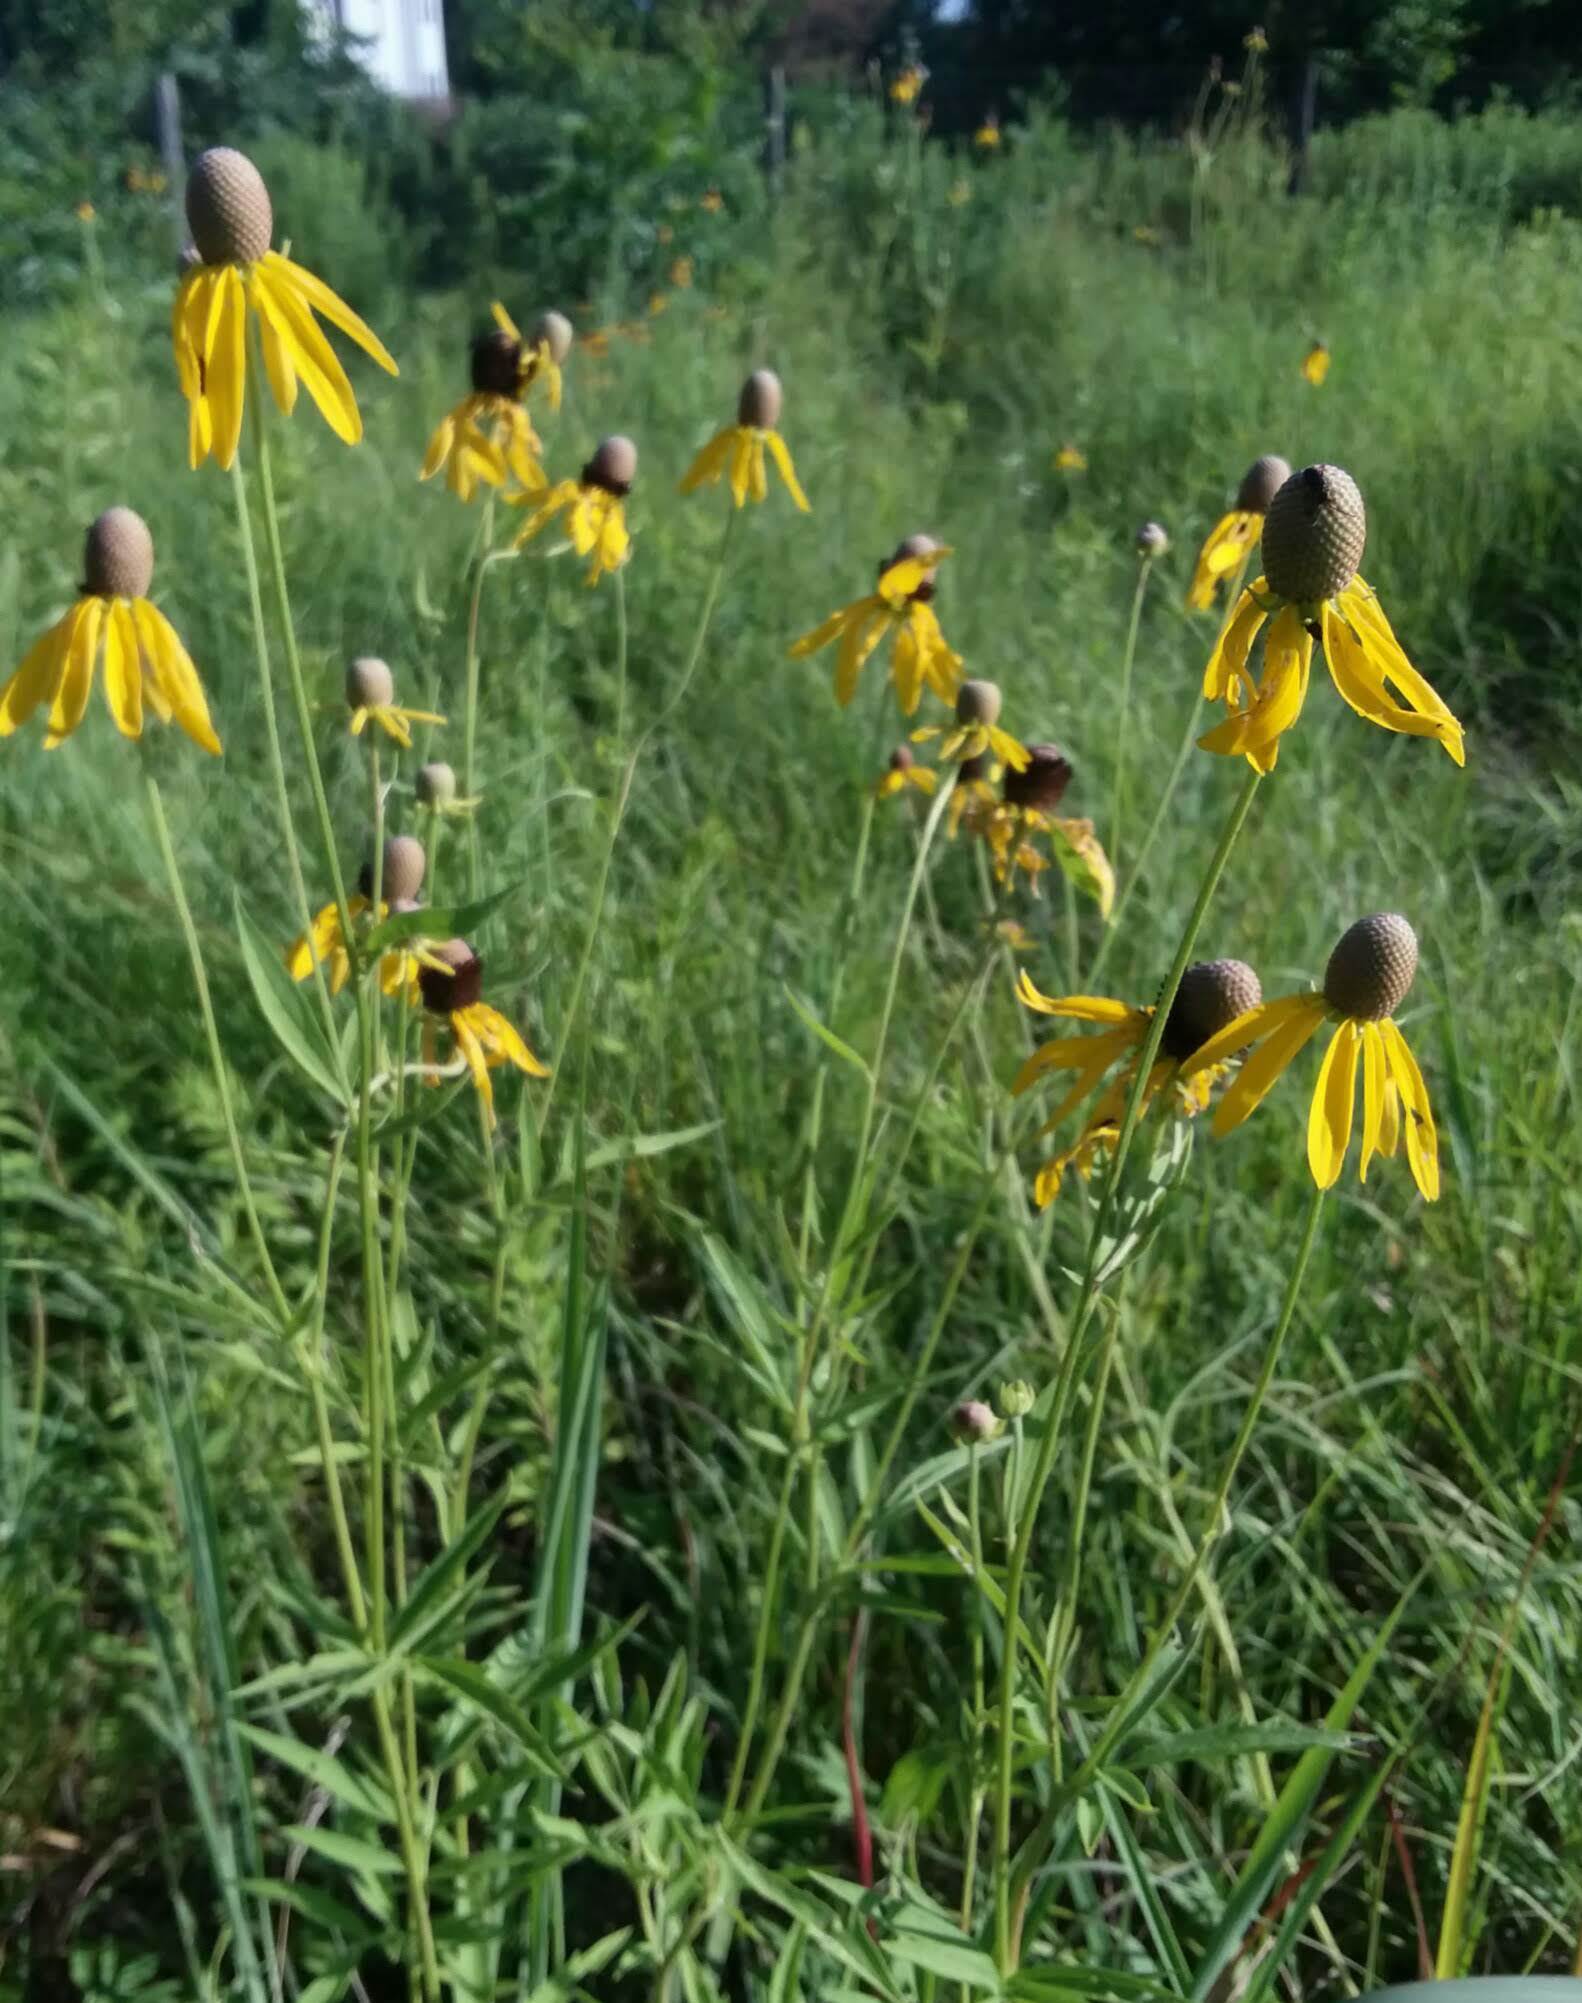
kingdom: Plantae
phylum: Tracheophyta
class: Magnoliopsida
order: Asterales
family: Asteraceae
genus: Ratibida
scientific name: Ratibida pinnata
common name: Drooping prairie-coneflower
